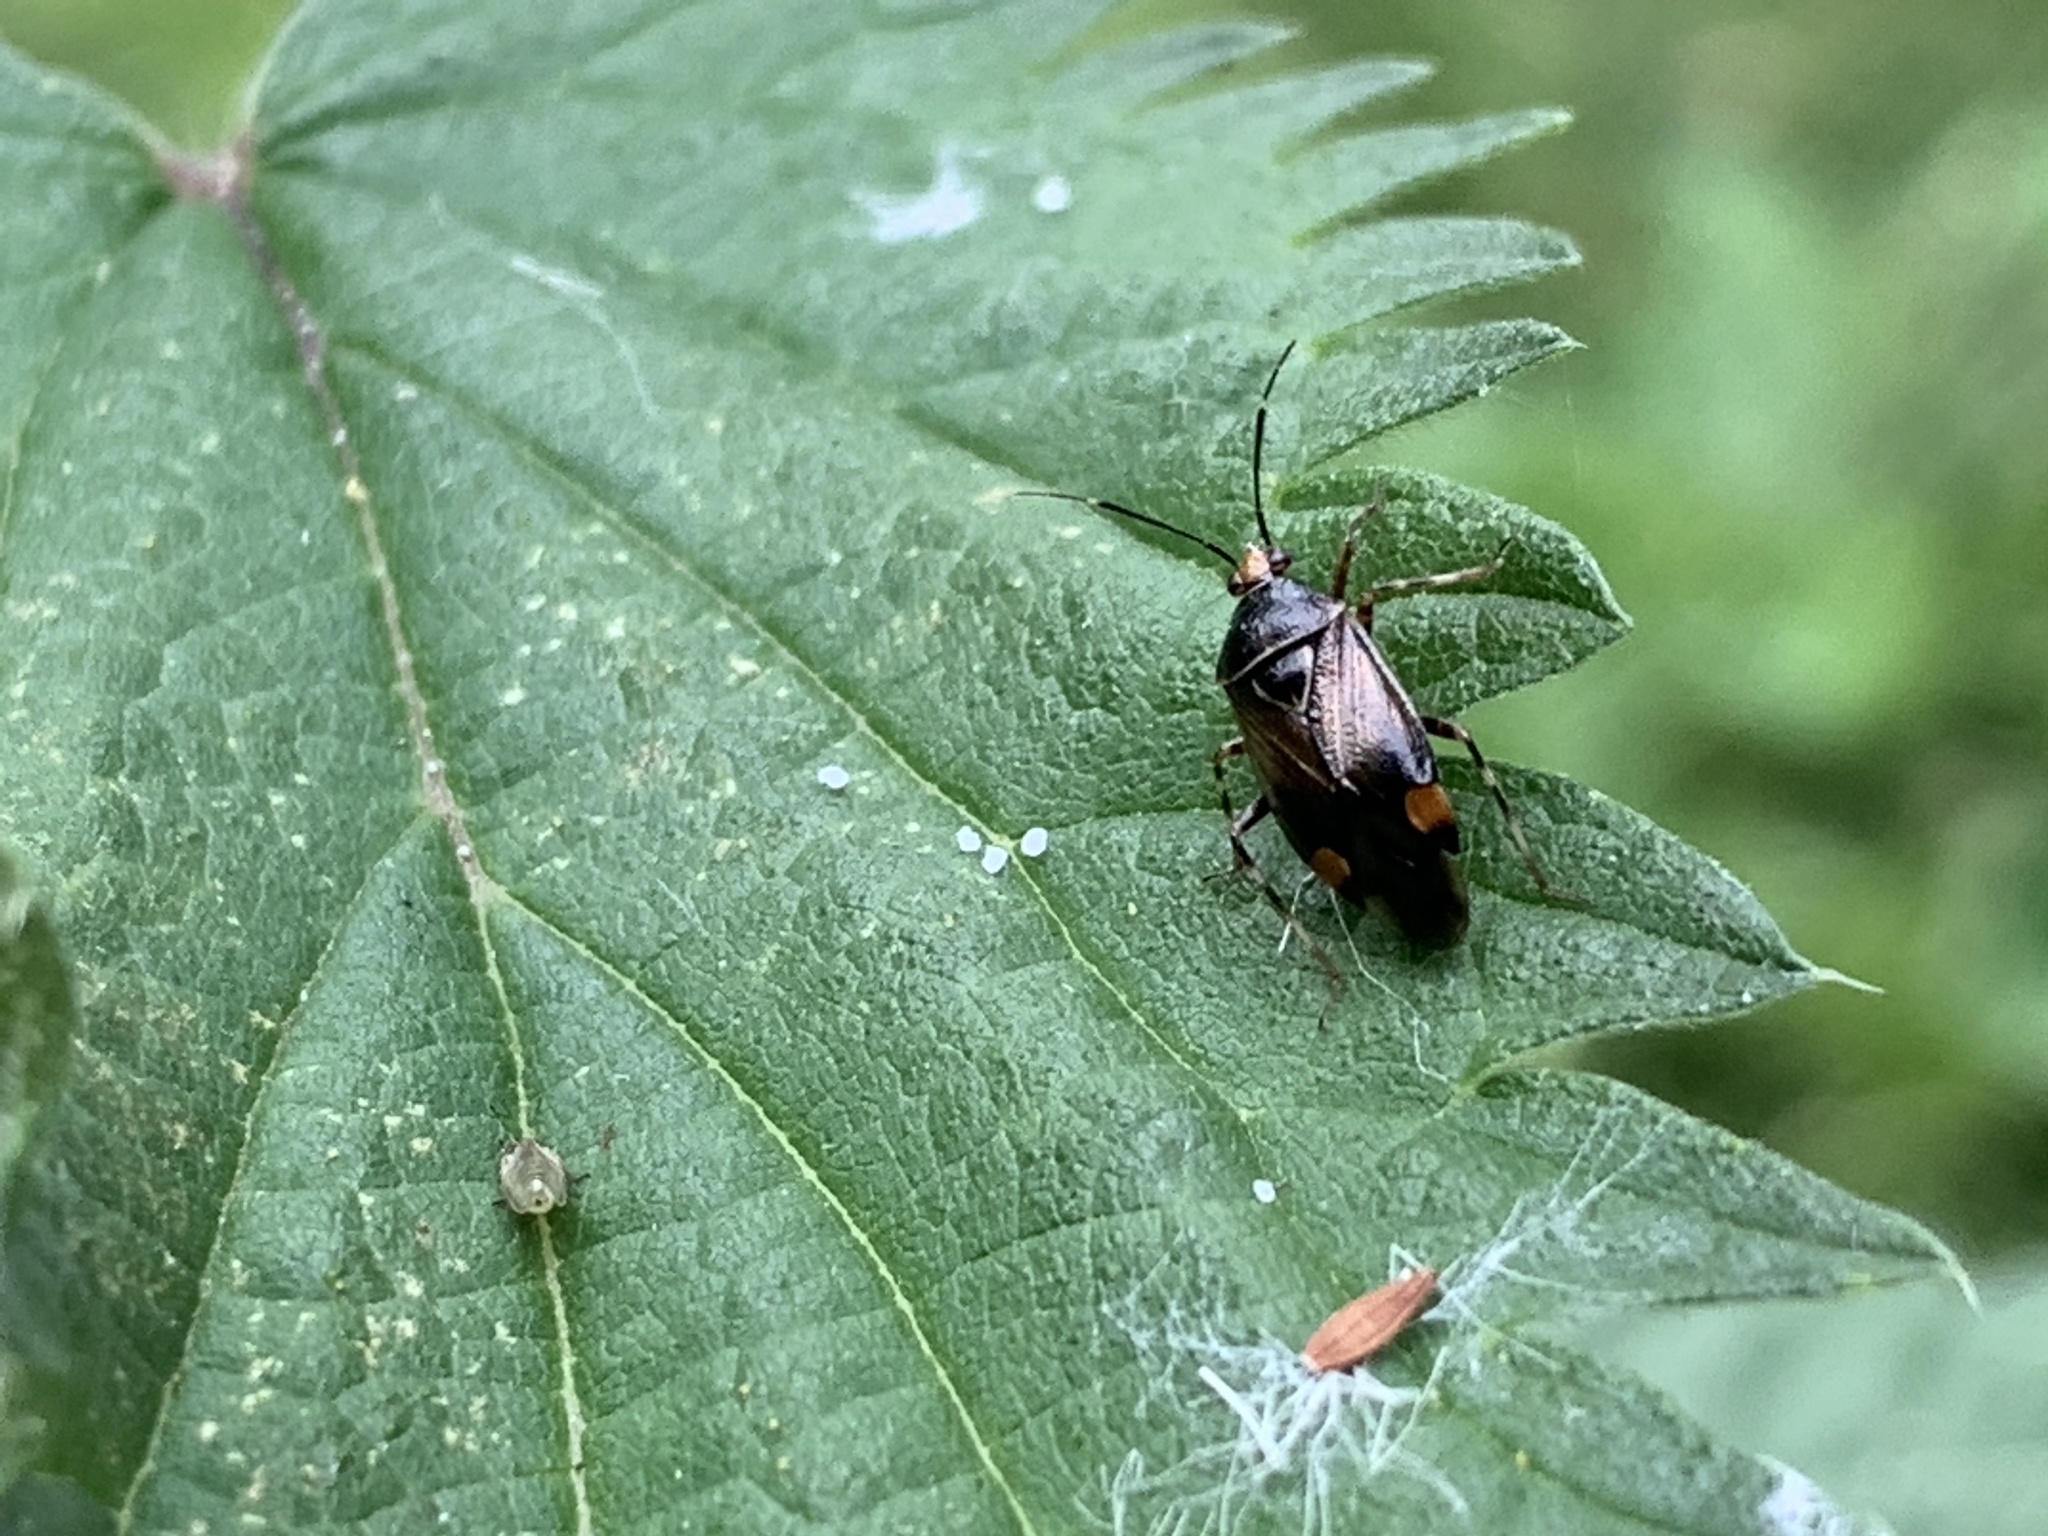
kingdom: Animalia
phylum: Arthropoda
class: Insecta
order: Hemiptera
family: Miridae
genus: Deraeocoris
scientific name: Deraeocoris flavilinea
